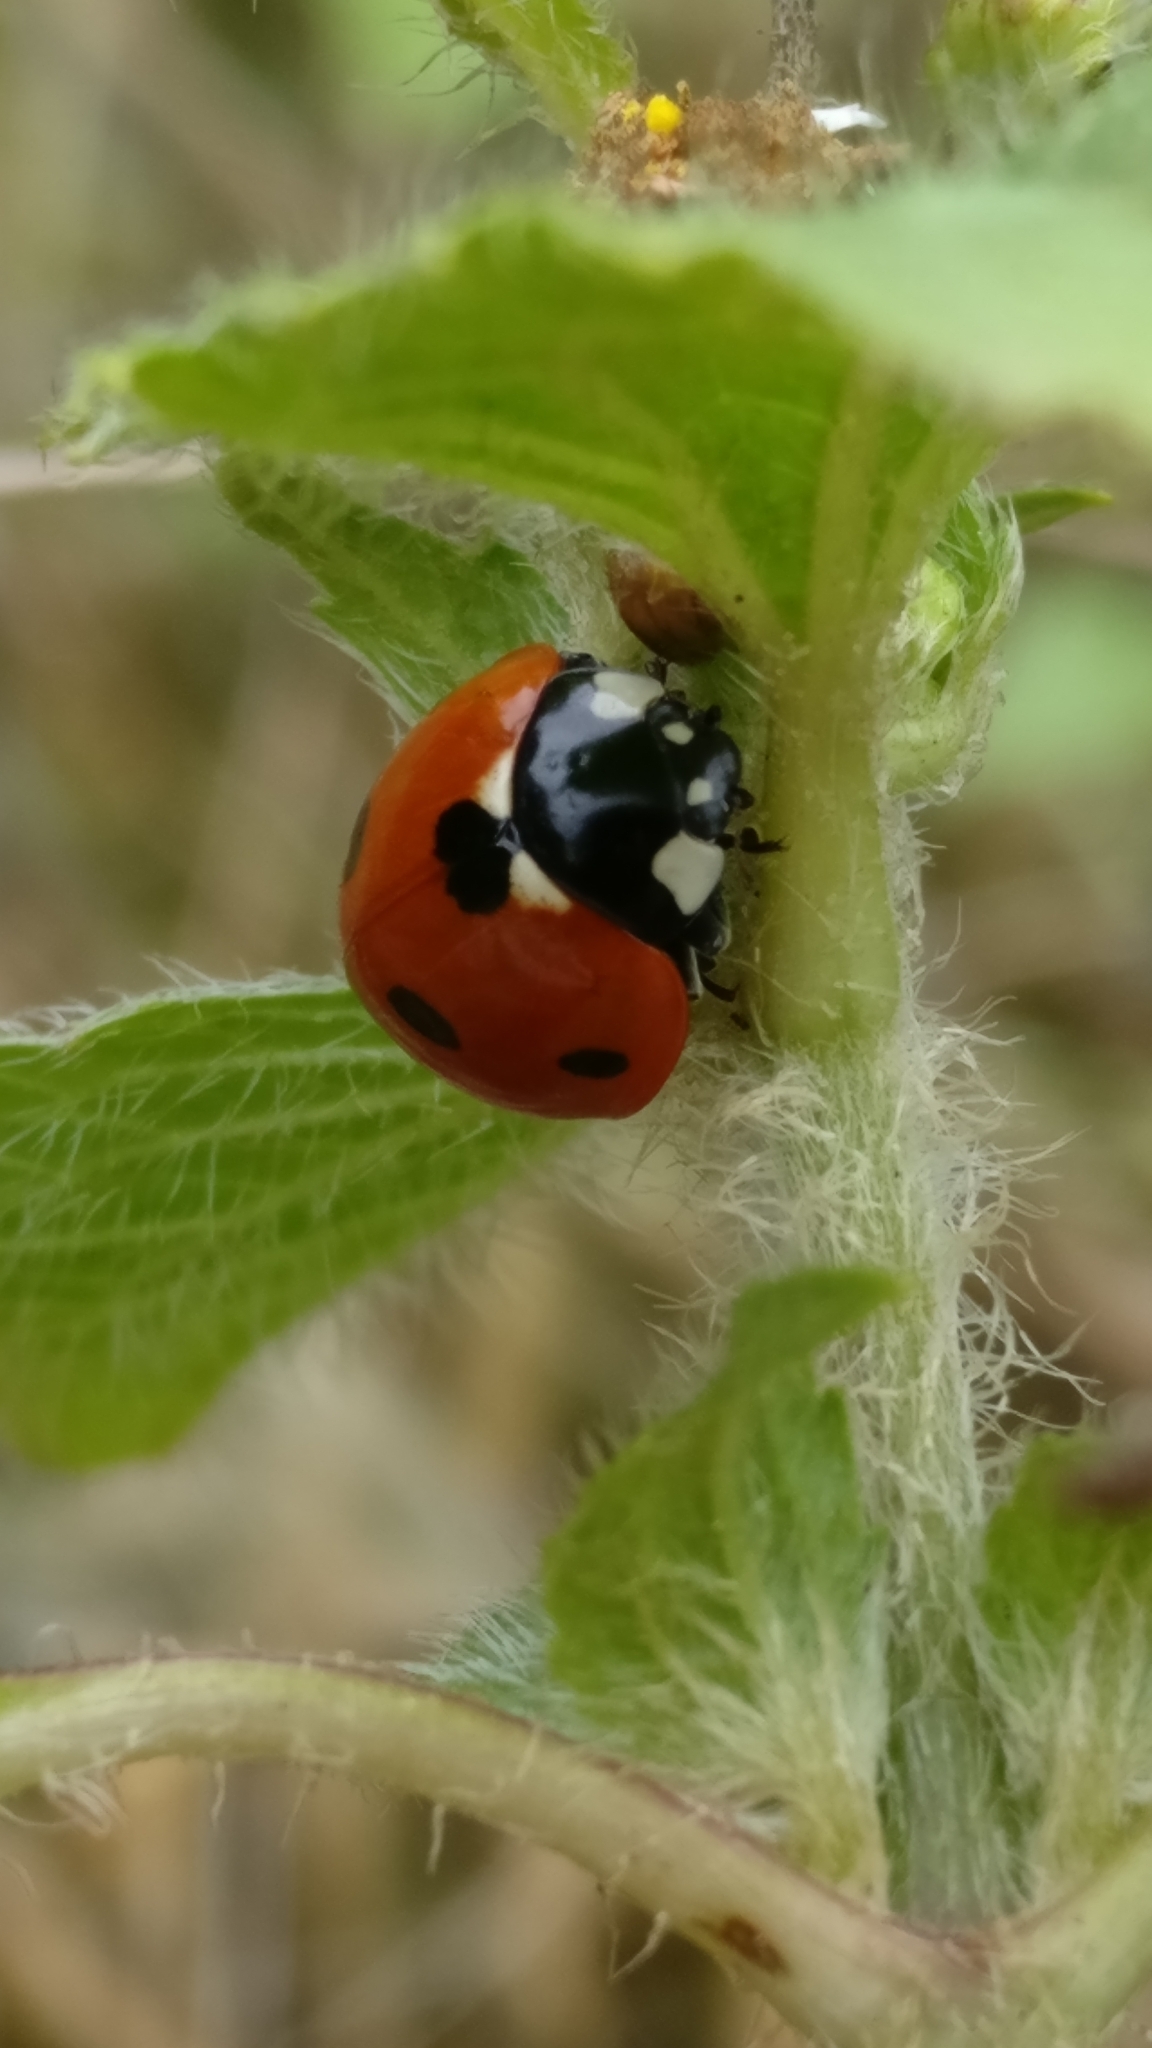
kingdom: Animalia
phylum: Arthropoda
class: Insecta
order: Coleoptera
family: Coccinellidae
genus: Coccinella
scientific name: Coccinella septempunctata
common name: Sevenspotted lady beetle
